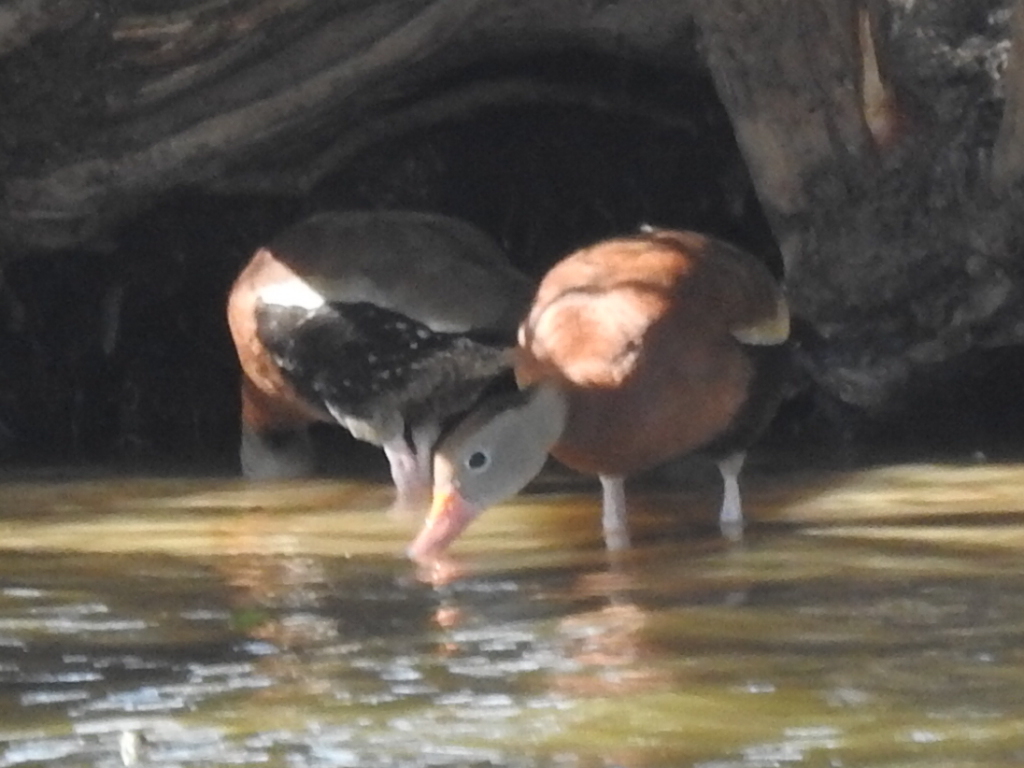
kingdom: Animalia
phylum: Chordata
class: Aves
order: Anseriformes
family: Anatidae
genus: Dendrocygna
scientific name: Dendrocygna autumnalis
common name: Black-bellied whistling duck
